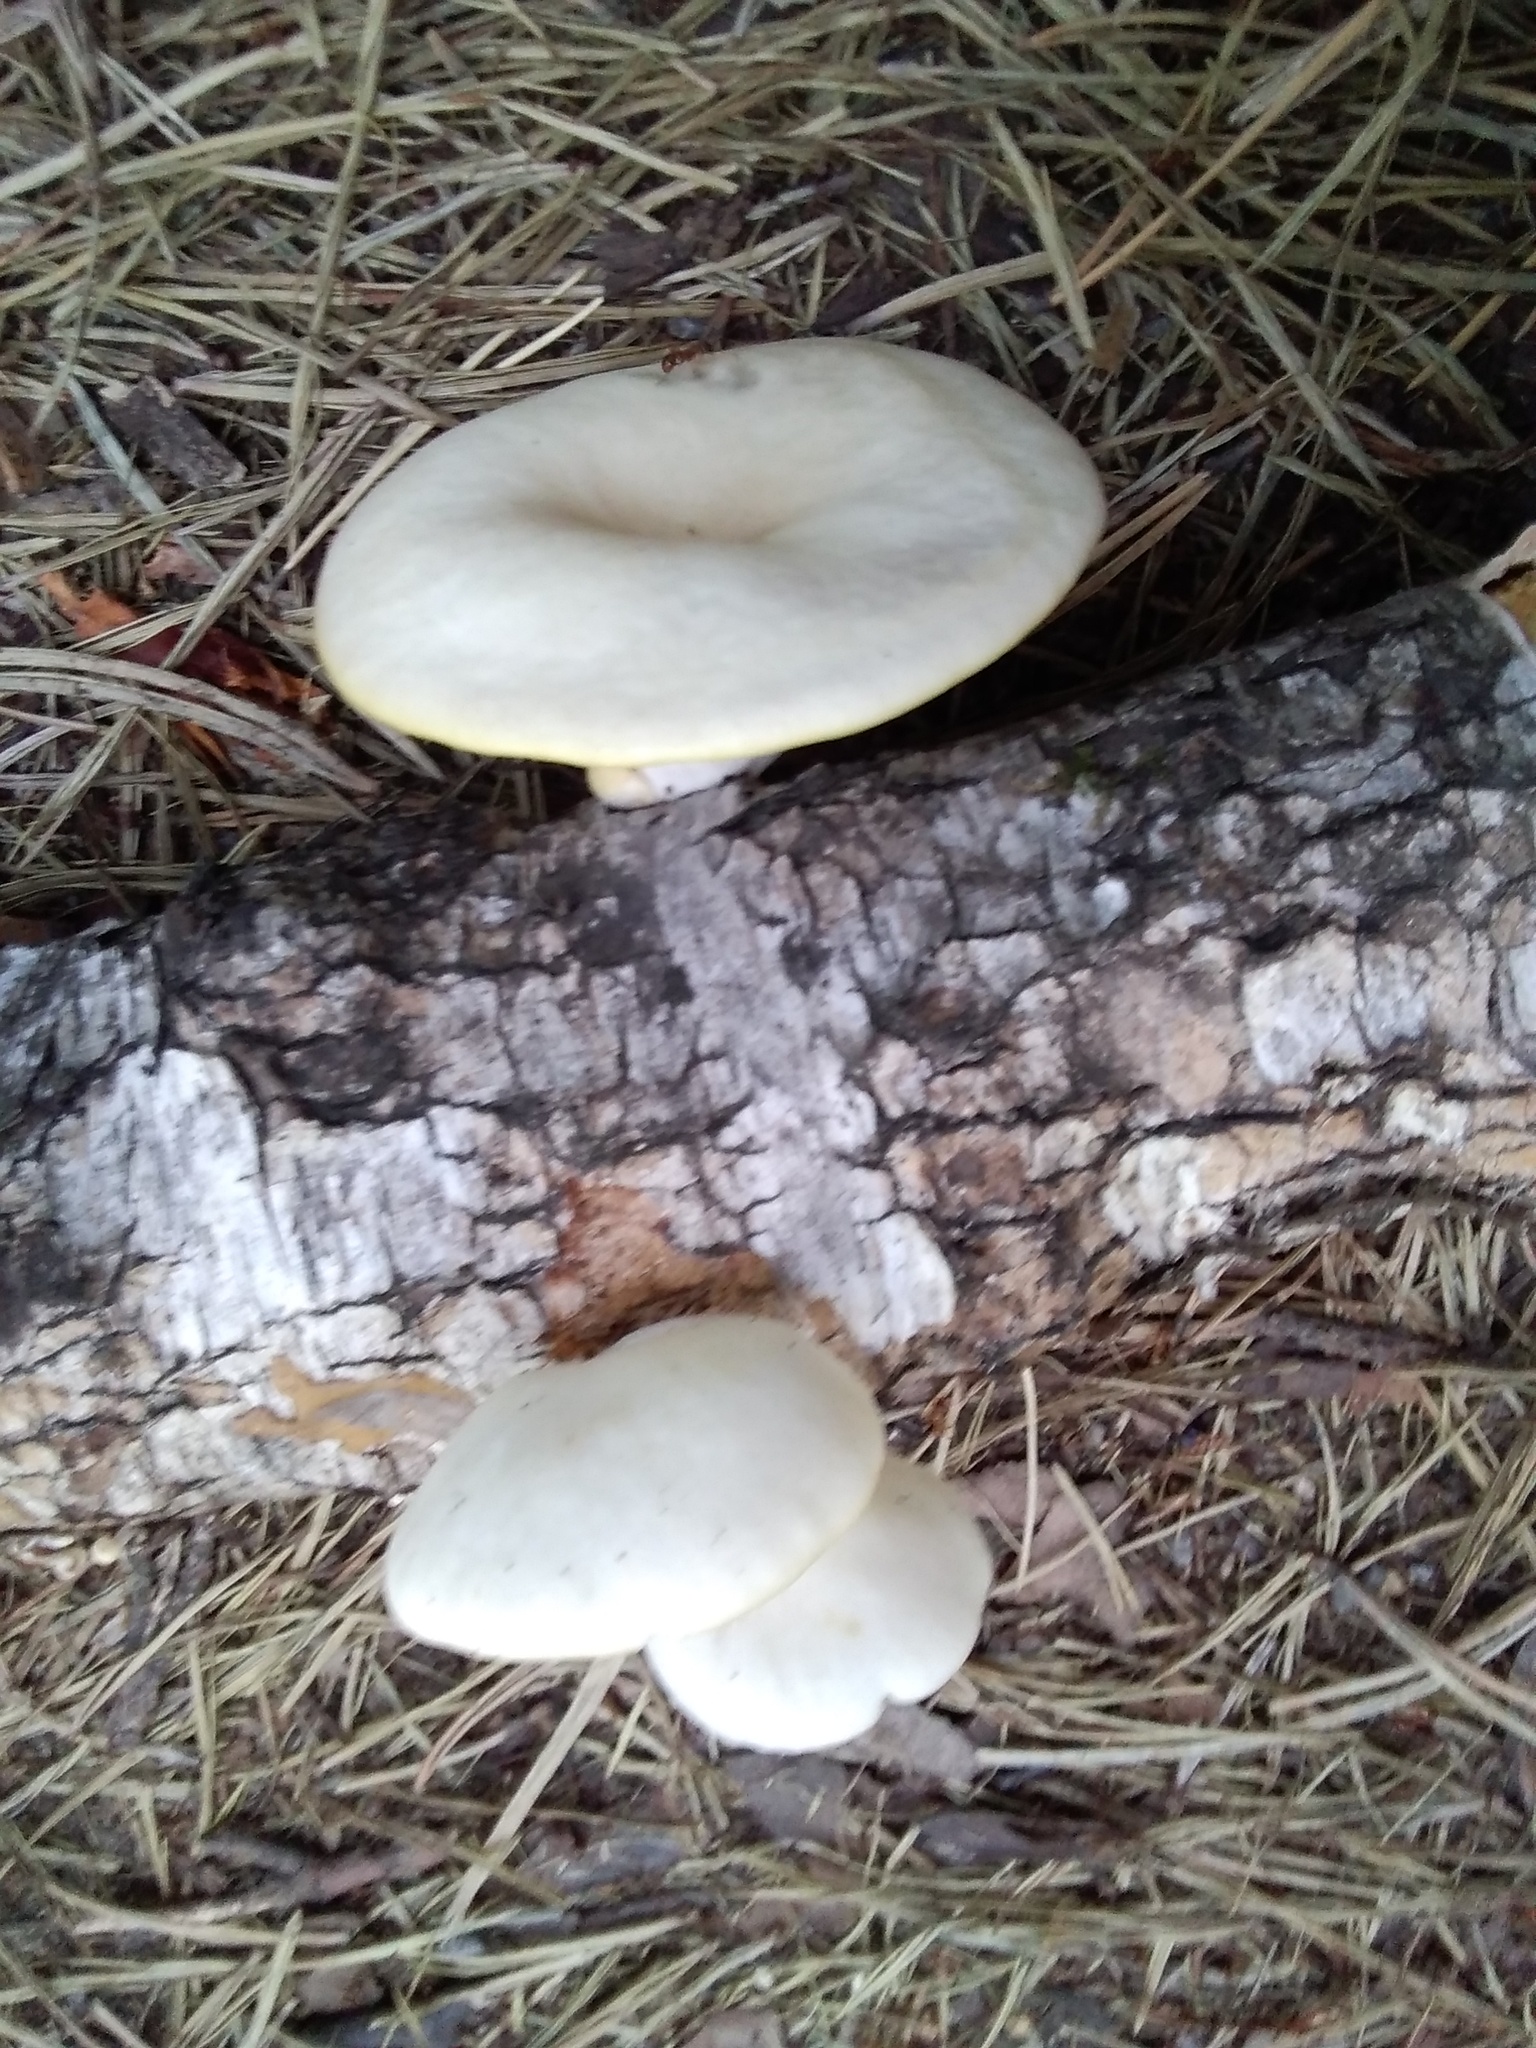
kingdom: Fungi
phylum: Basidiomycota
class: Agaricomycetes
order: Agaricales
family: Pleurotaceae
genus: Pleurotus
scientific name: Pleurotus pulmonarius
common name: Pale oyster
